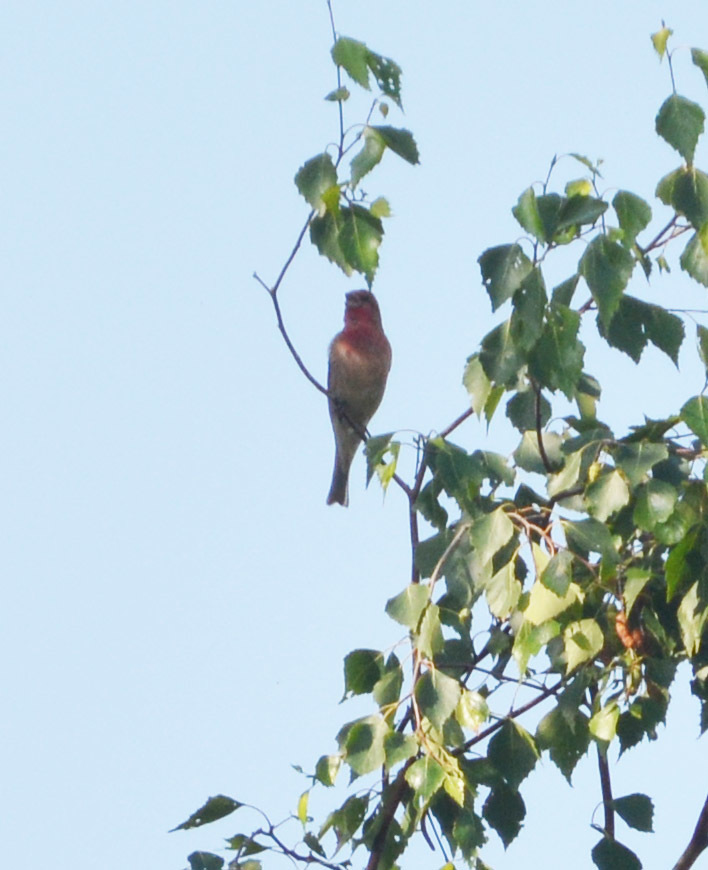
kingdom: Animalia
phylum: Chordata
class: Aves
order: Passeriformes
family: Fringillidae
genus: Carpodacus
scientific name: Carpodacus erythrinus
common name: Common rosefinch
